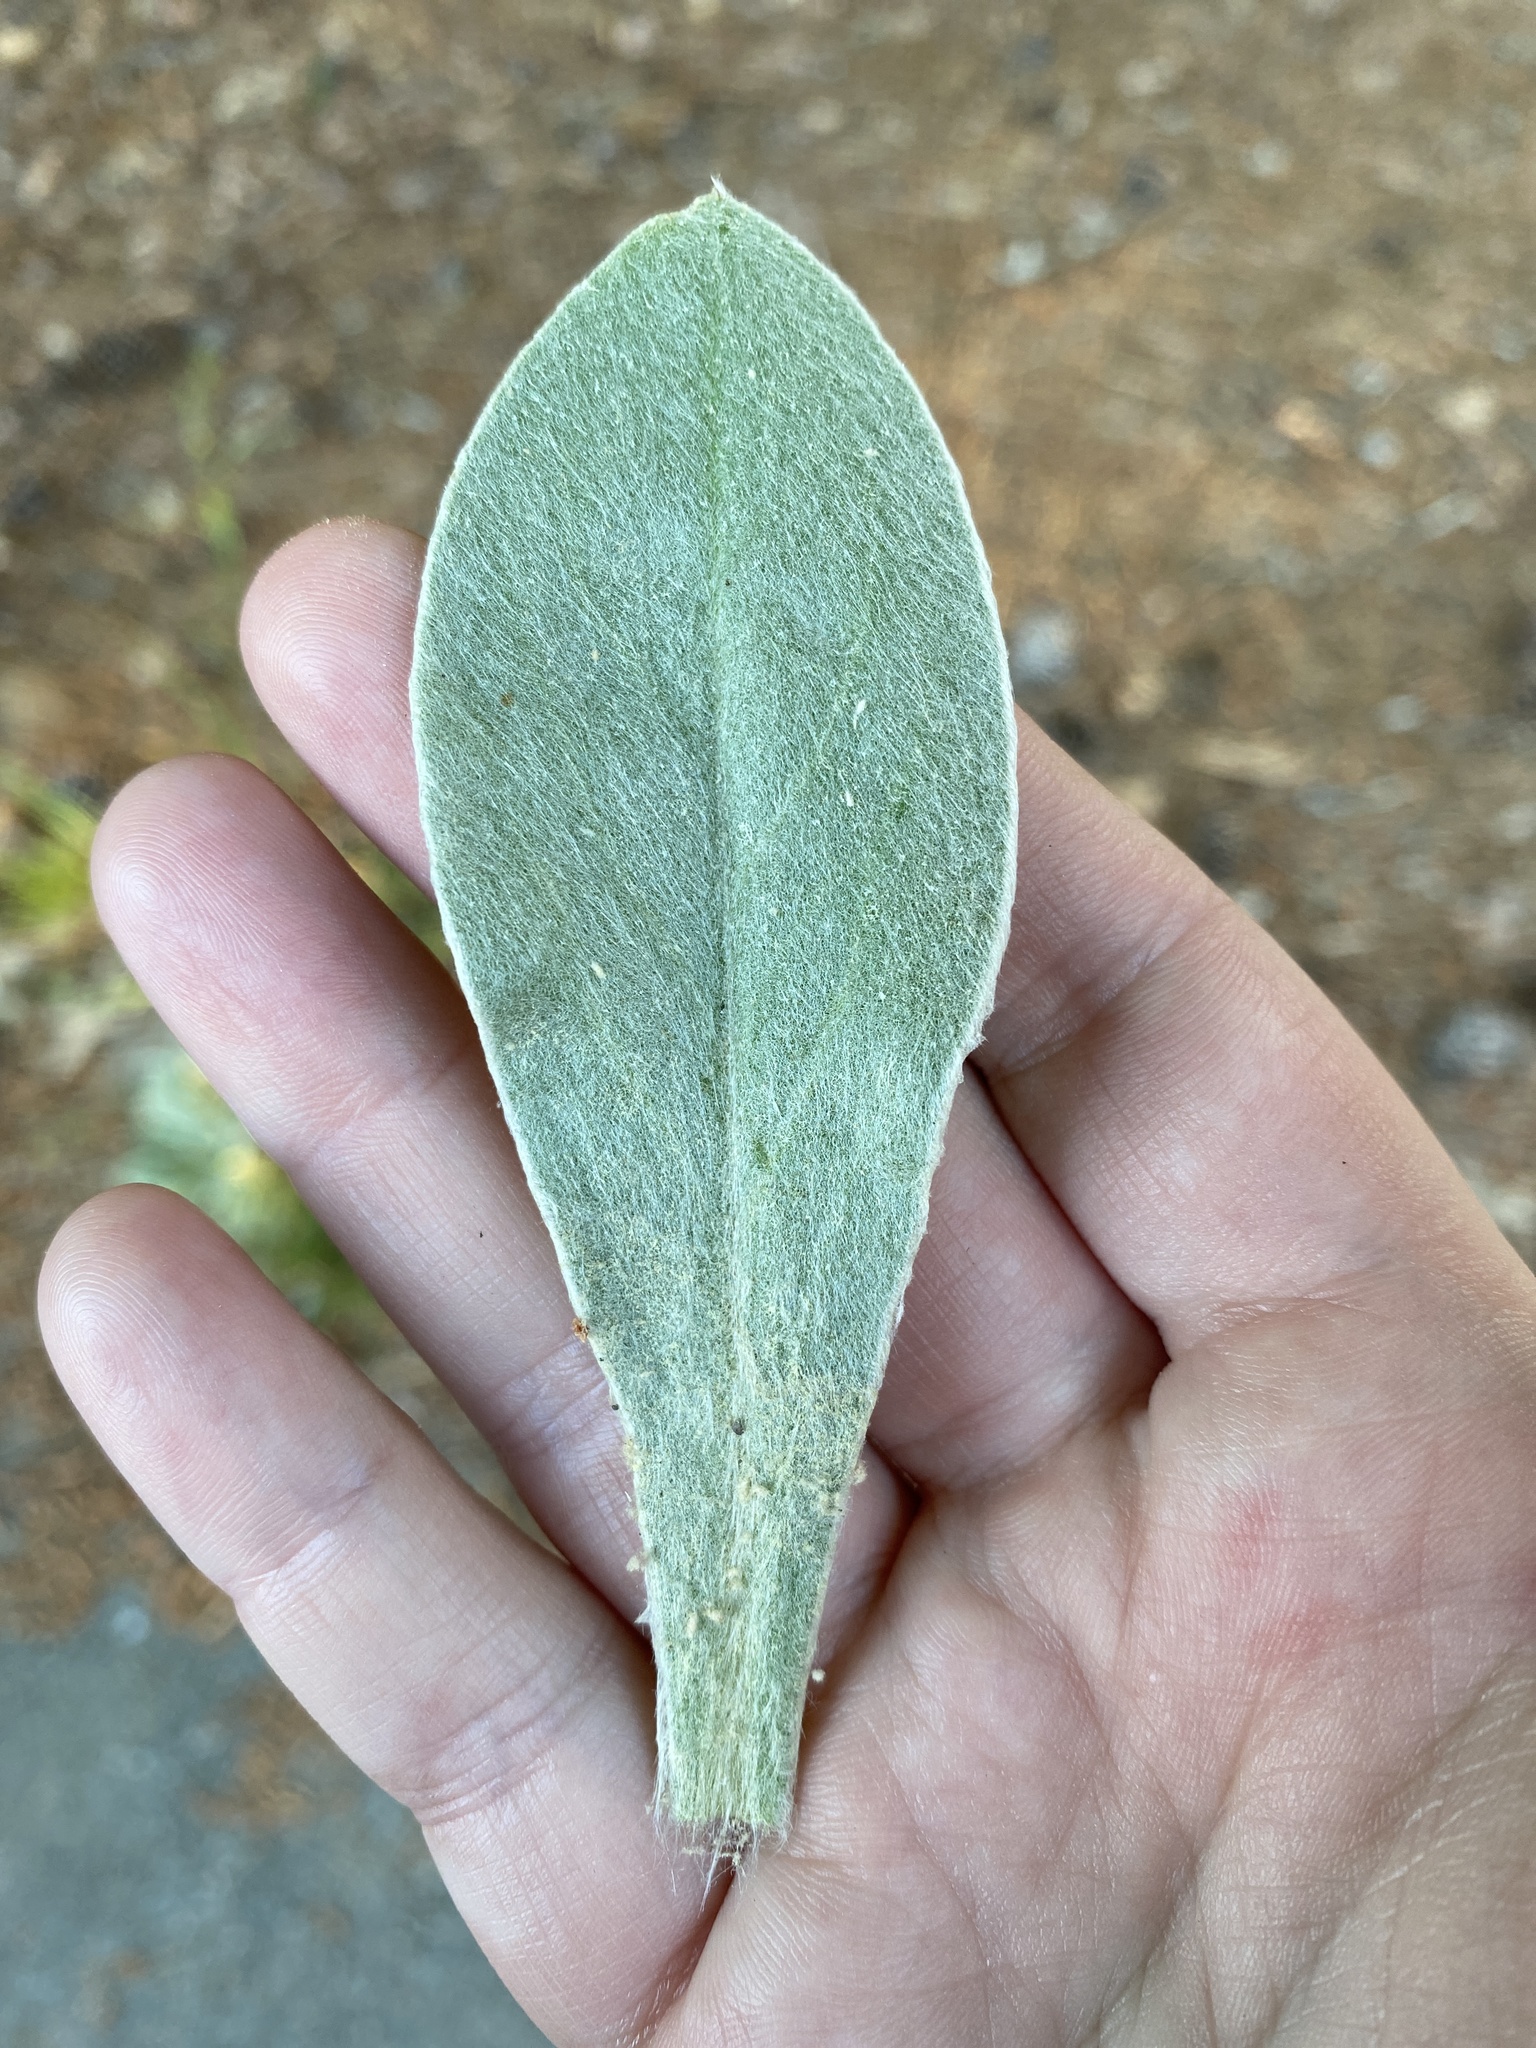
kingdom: Plantae
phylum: Tracheophyta
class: Magnoliopsida
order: Caryophyllales
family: Caryophyllaceae
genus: Silene
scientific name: Silene coronaria
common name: Rose campion
